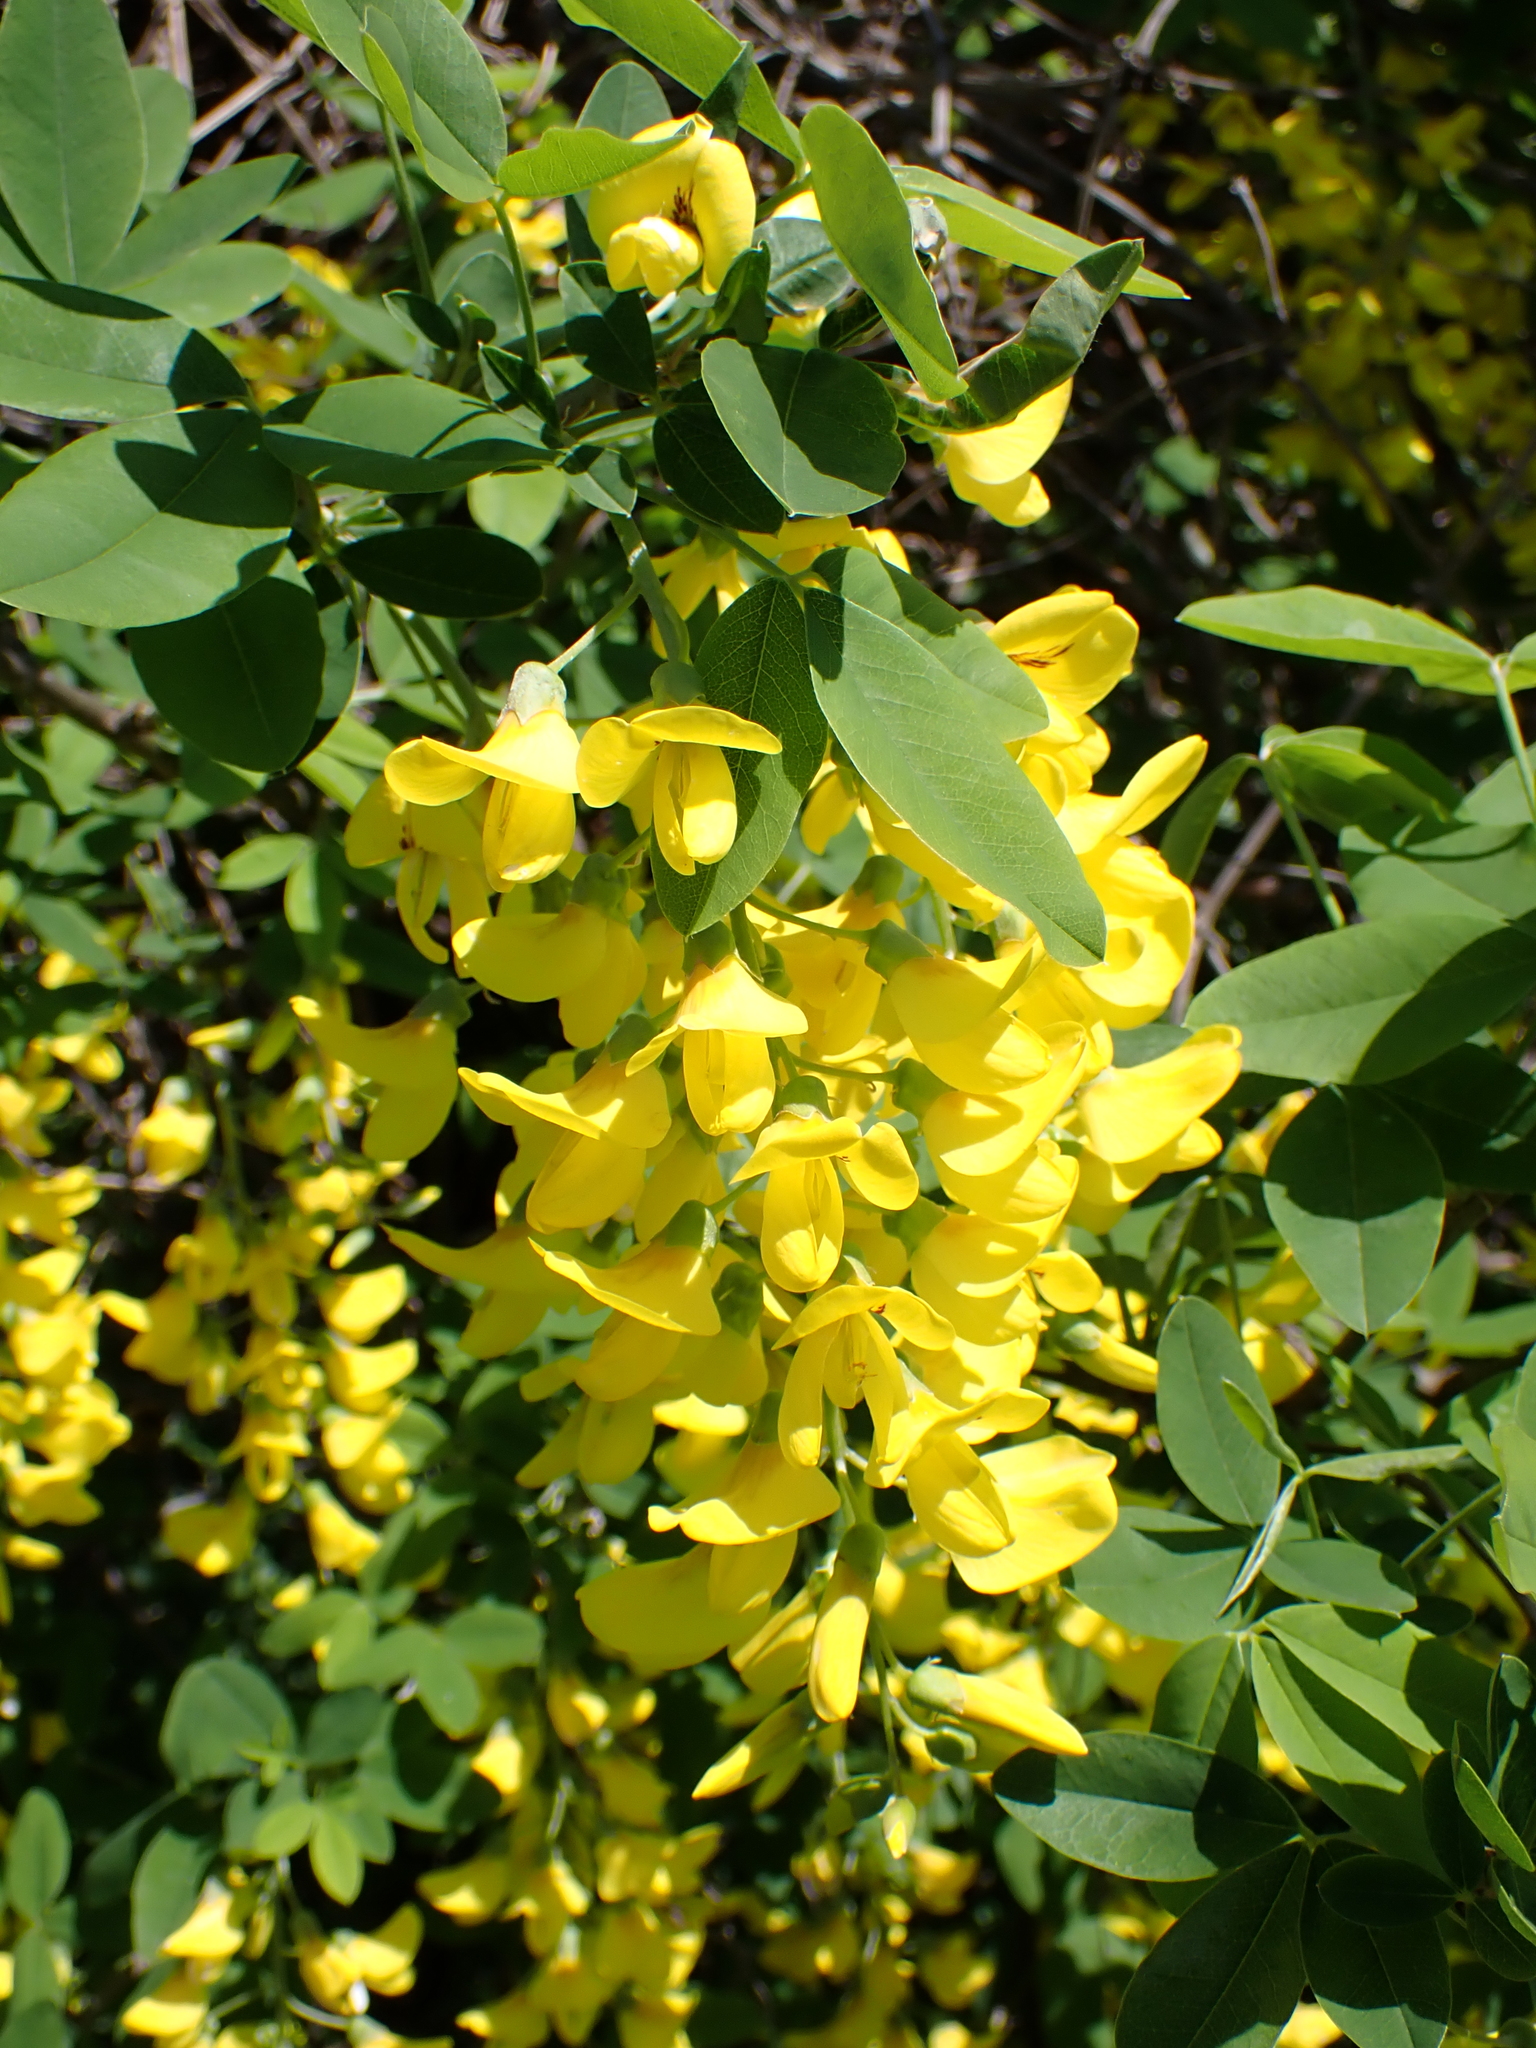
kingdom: Plantae
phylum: Tracheophyta
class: Magnoliopsida
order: Fabales
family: Fabaceae
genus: Laburnum
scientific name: Laburnum anagyroides
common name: Laburnum
